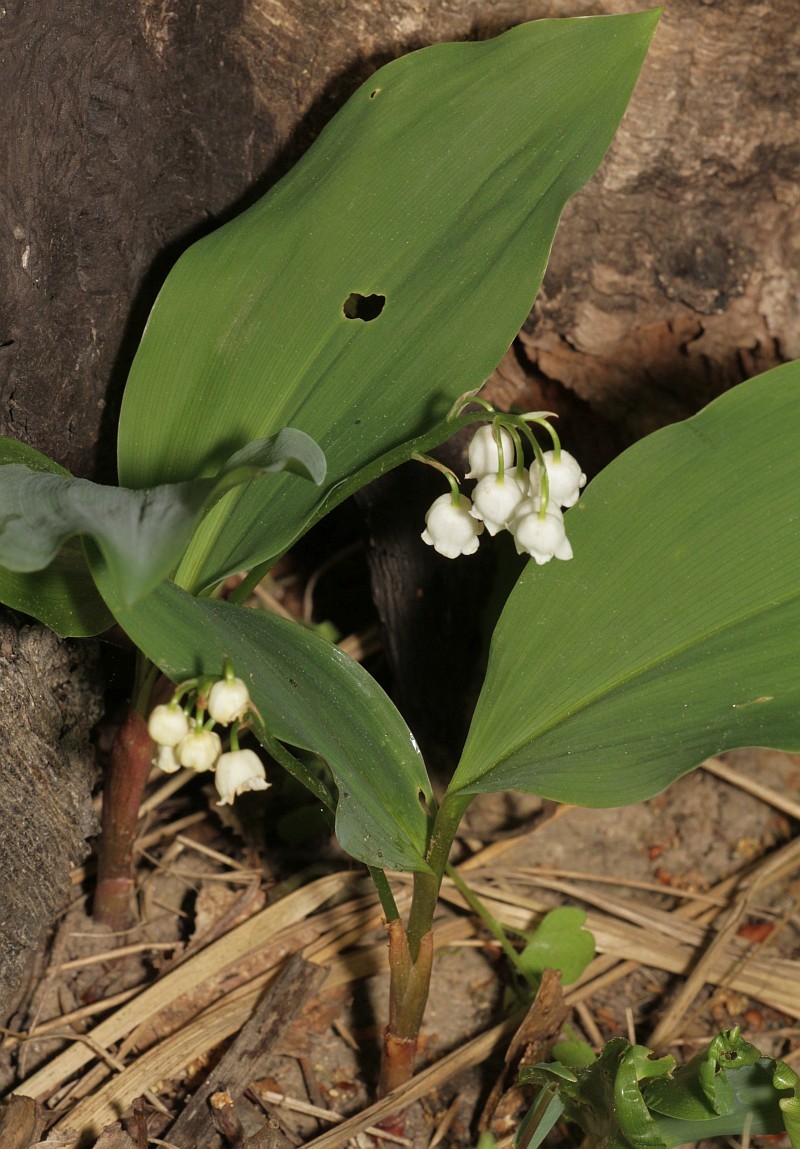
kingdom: Plantae
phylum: Tracheophyta
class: Liliopsida
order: Asparagales
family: Asparagaceae
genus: Convallaria
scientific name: Convallaria majalis
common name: Lily-of-the-valley
